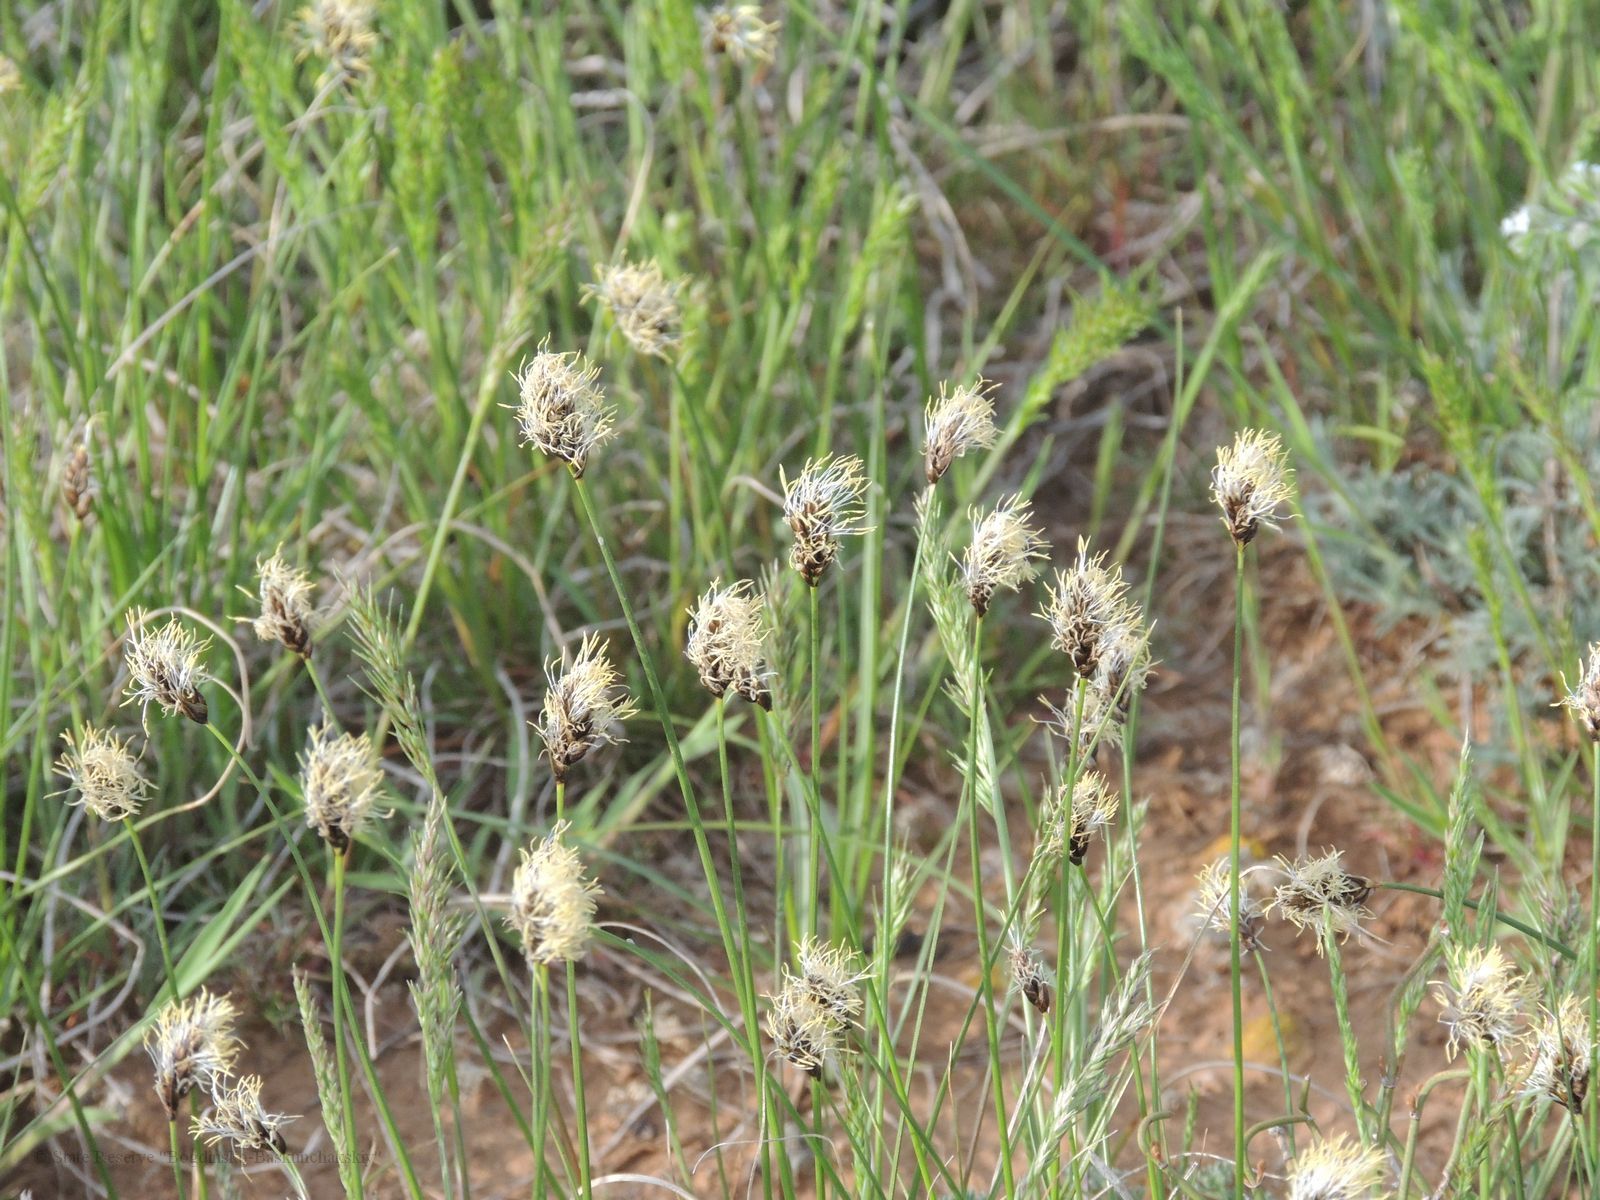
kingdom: Plantae
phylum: Tracheophyta
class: Liliopsida
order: Poales
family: Cyperaceae
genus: Carex
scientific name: Carex stenophylla
